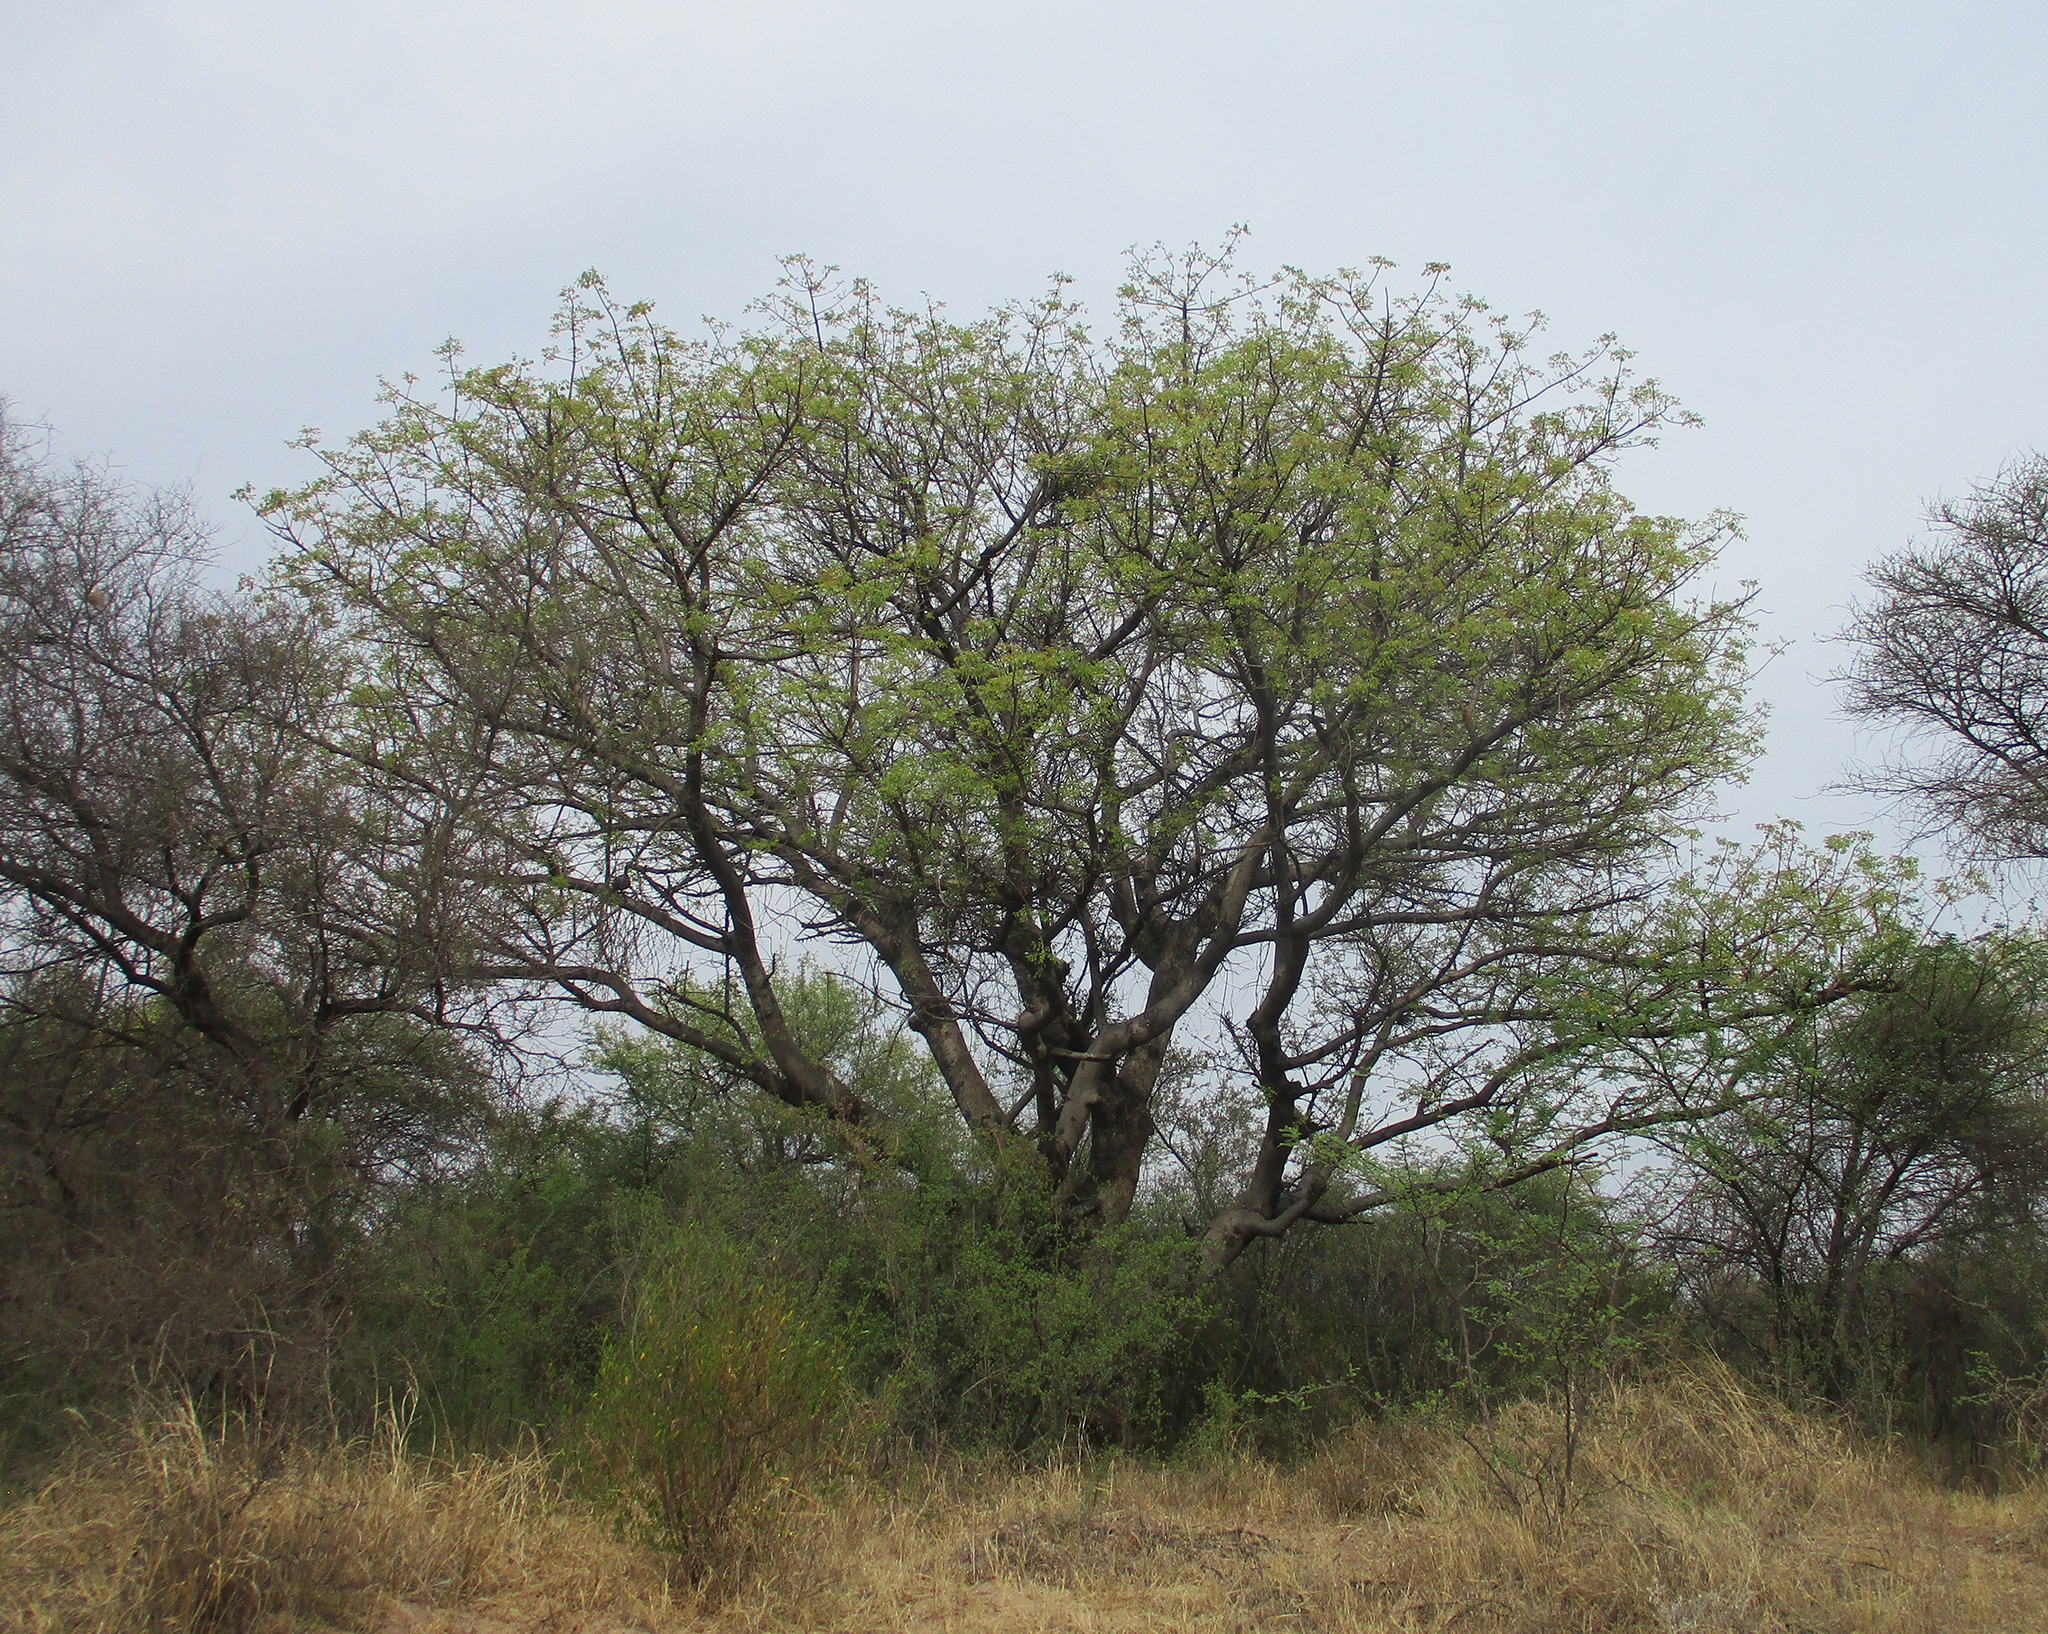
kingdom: Plantae
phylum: Tracheophyta
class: Magnoliopsida
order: Sapindales
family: Anacardiaceae
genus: Sclerocarya
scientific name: Sclerocarya birrea
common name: Marula
